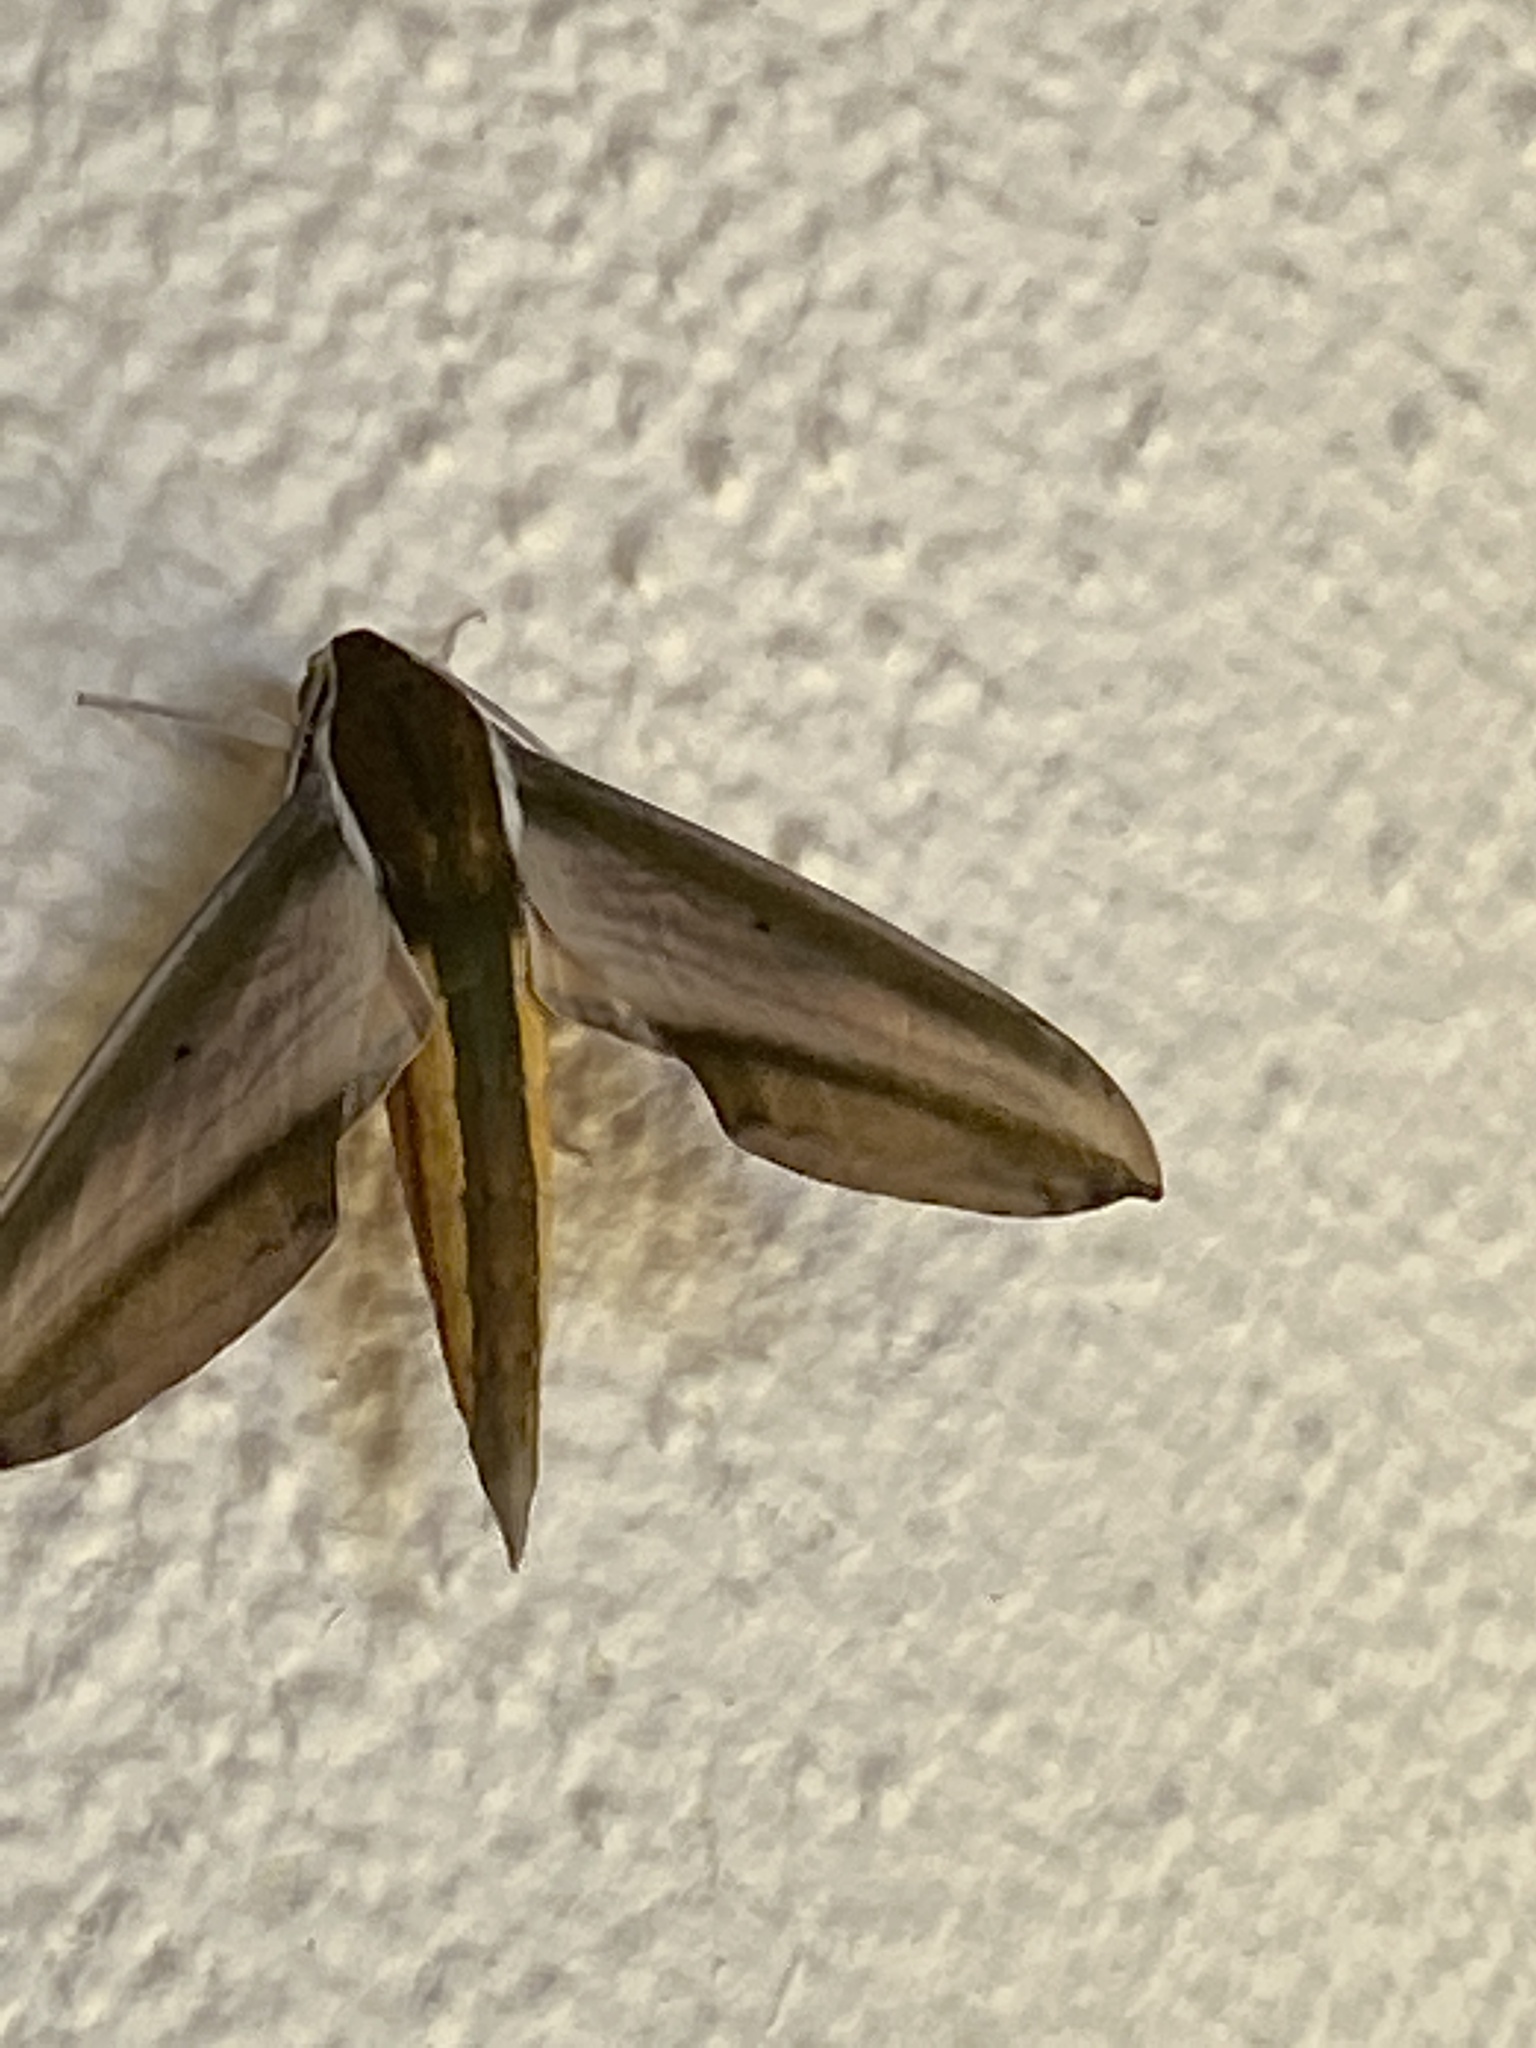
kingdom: Animalia
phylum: Arthropoda
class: Insecta
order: Lepidoptera
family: Sphingidae
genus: Theretra
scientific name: Theretra nessus
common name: Yam hawk moth
